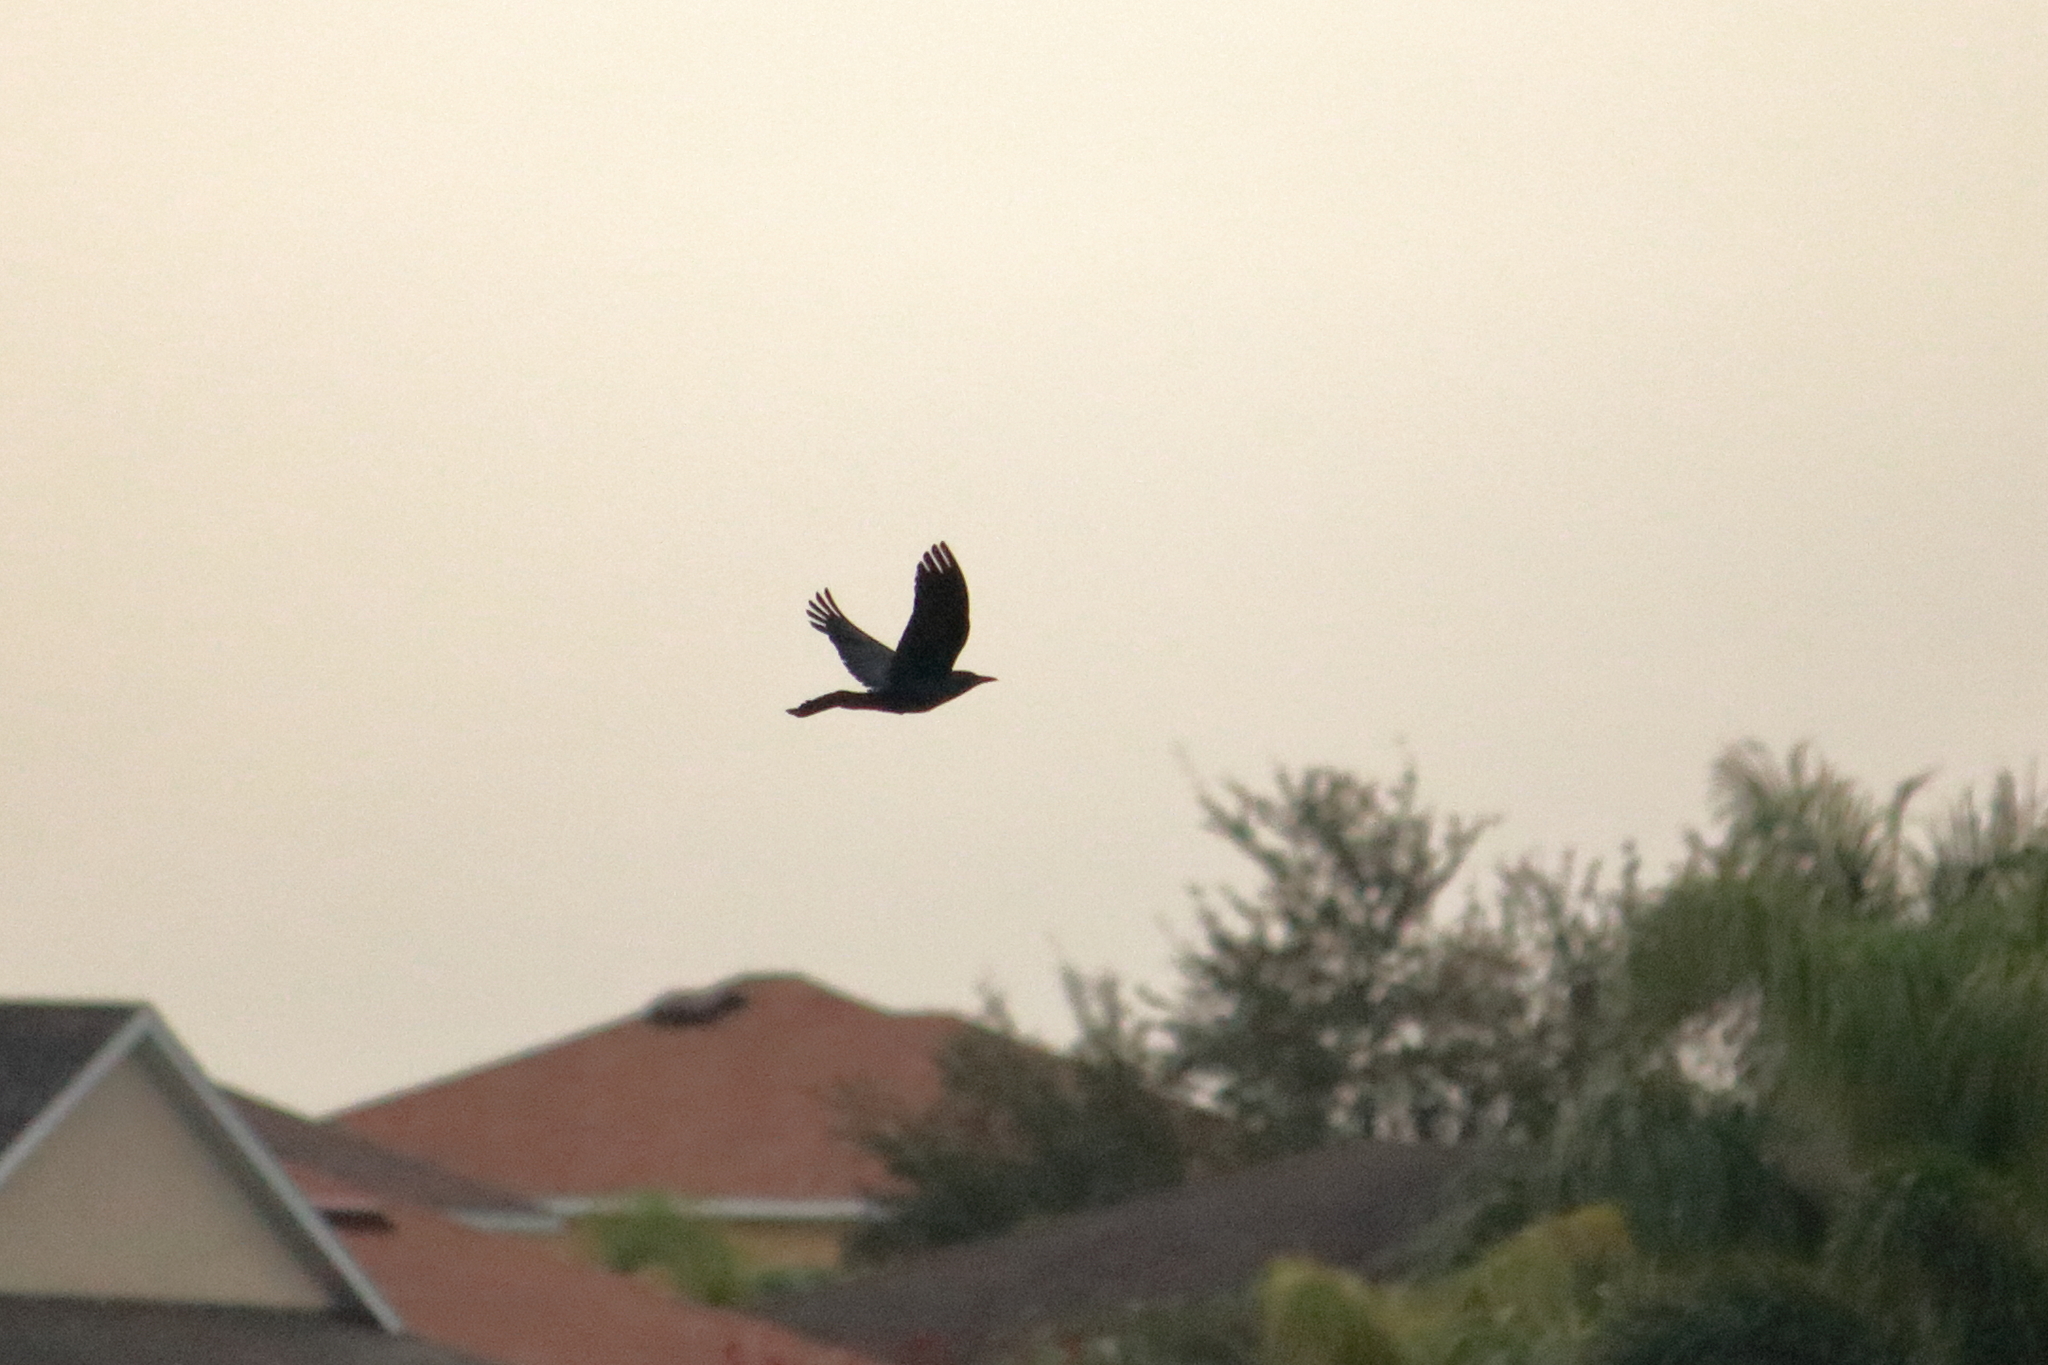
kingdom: Animalia
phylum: Chordata
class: Aves
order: Passeriformes
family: Icteridae
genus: Quiscalus
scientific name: Quiscalus major
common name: Boat-tailed grackle
